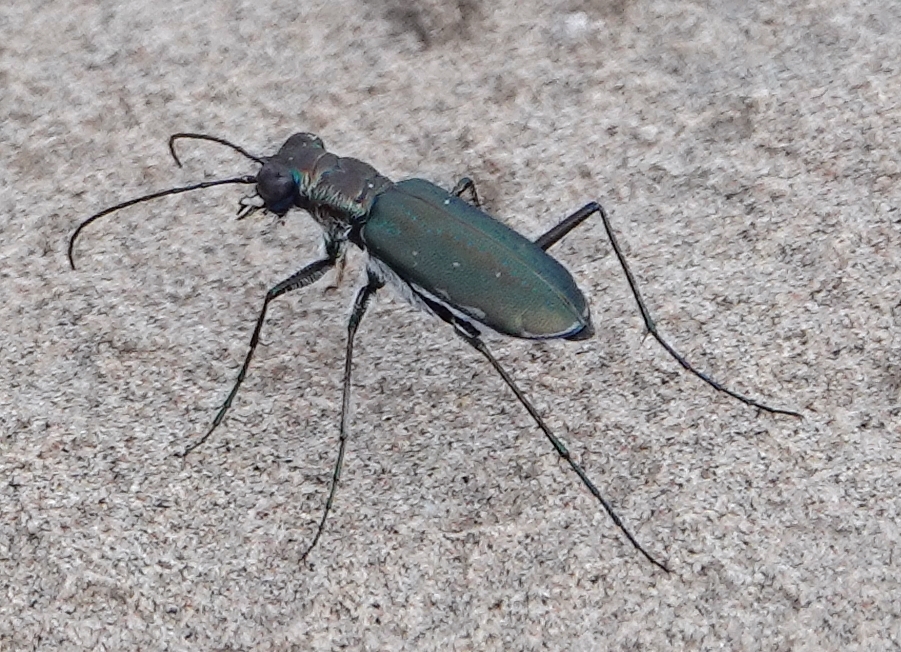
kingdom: Animalia
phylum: Arthropoda
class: Insecta
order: Coleoptera
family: Carabidae
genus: Cicindela
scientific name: Cicindela punctulata
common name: Punctured tiger beetle
